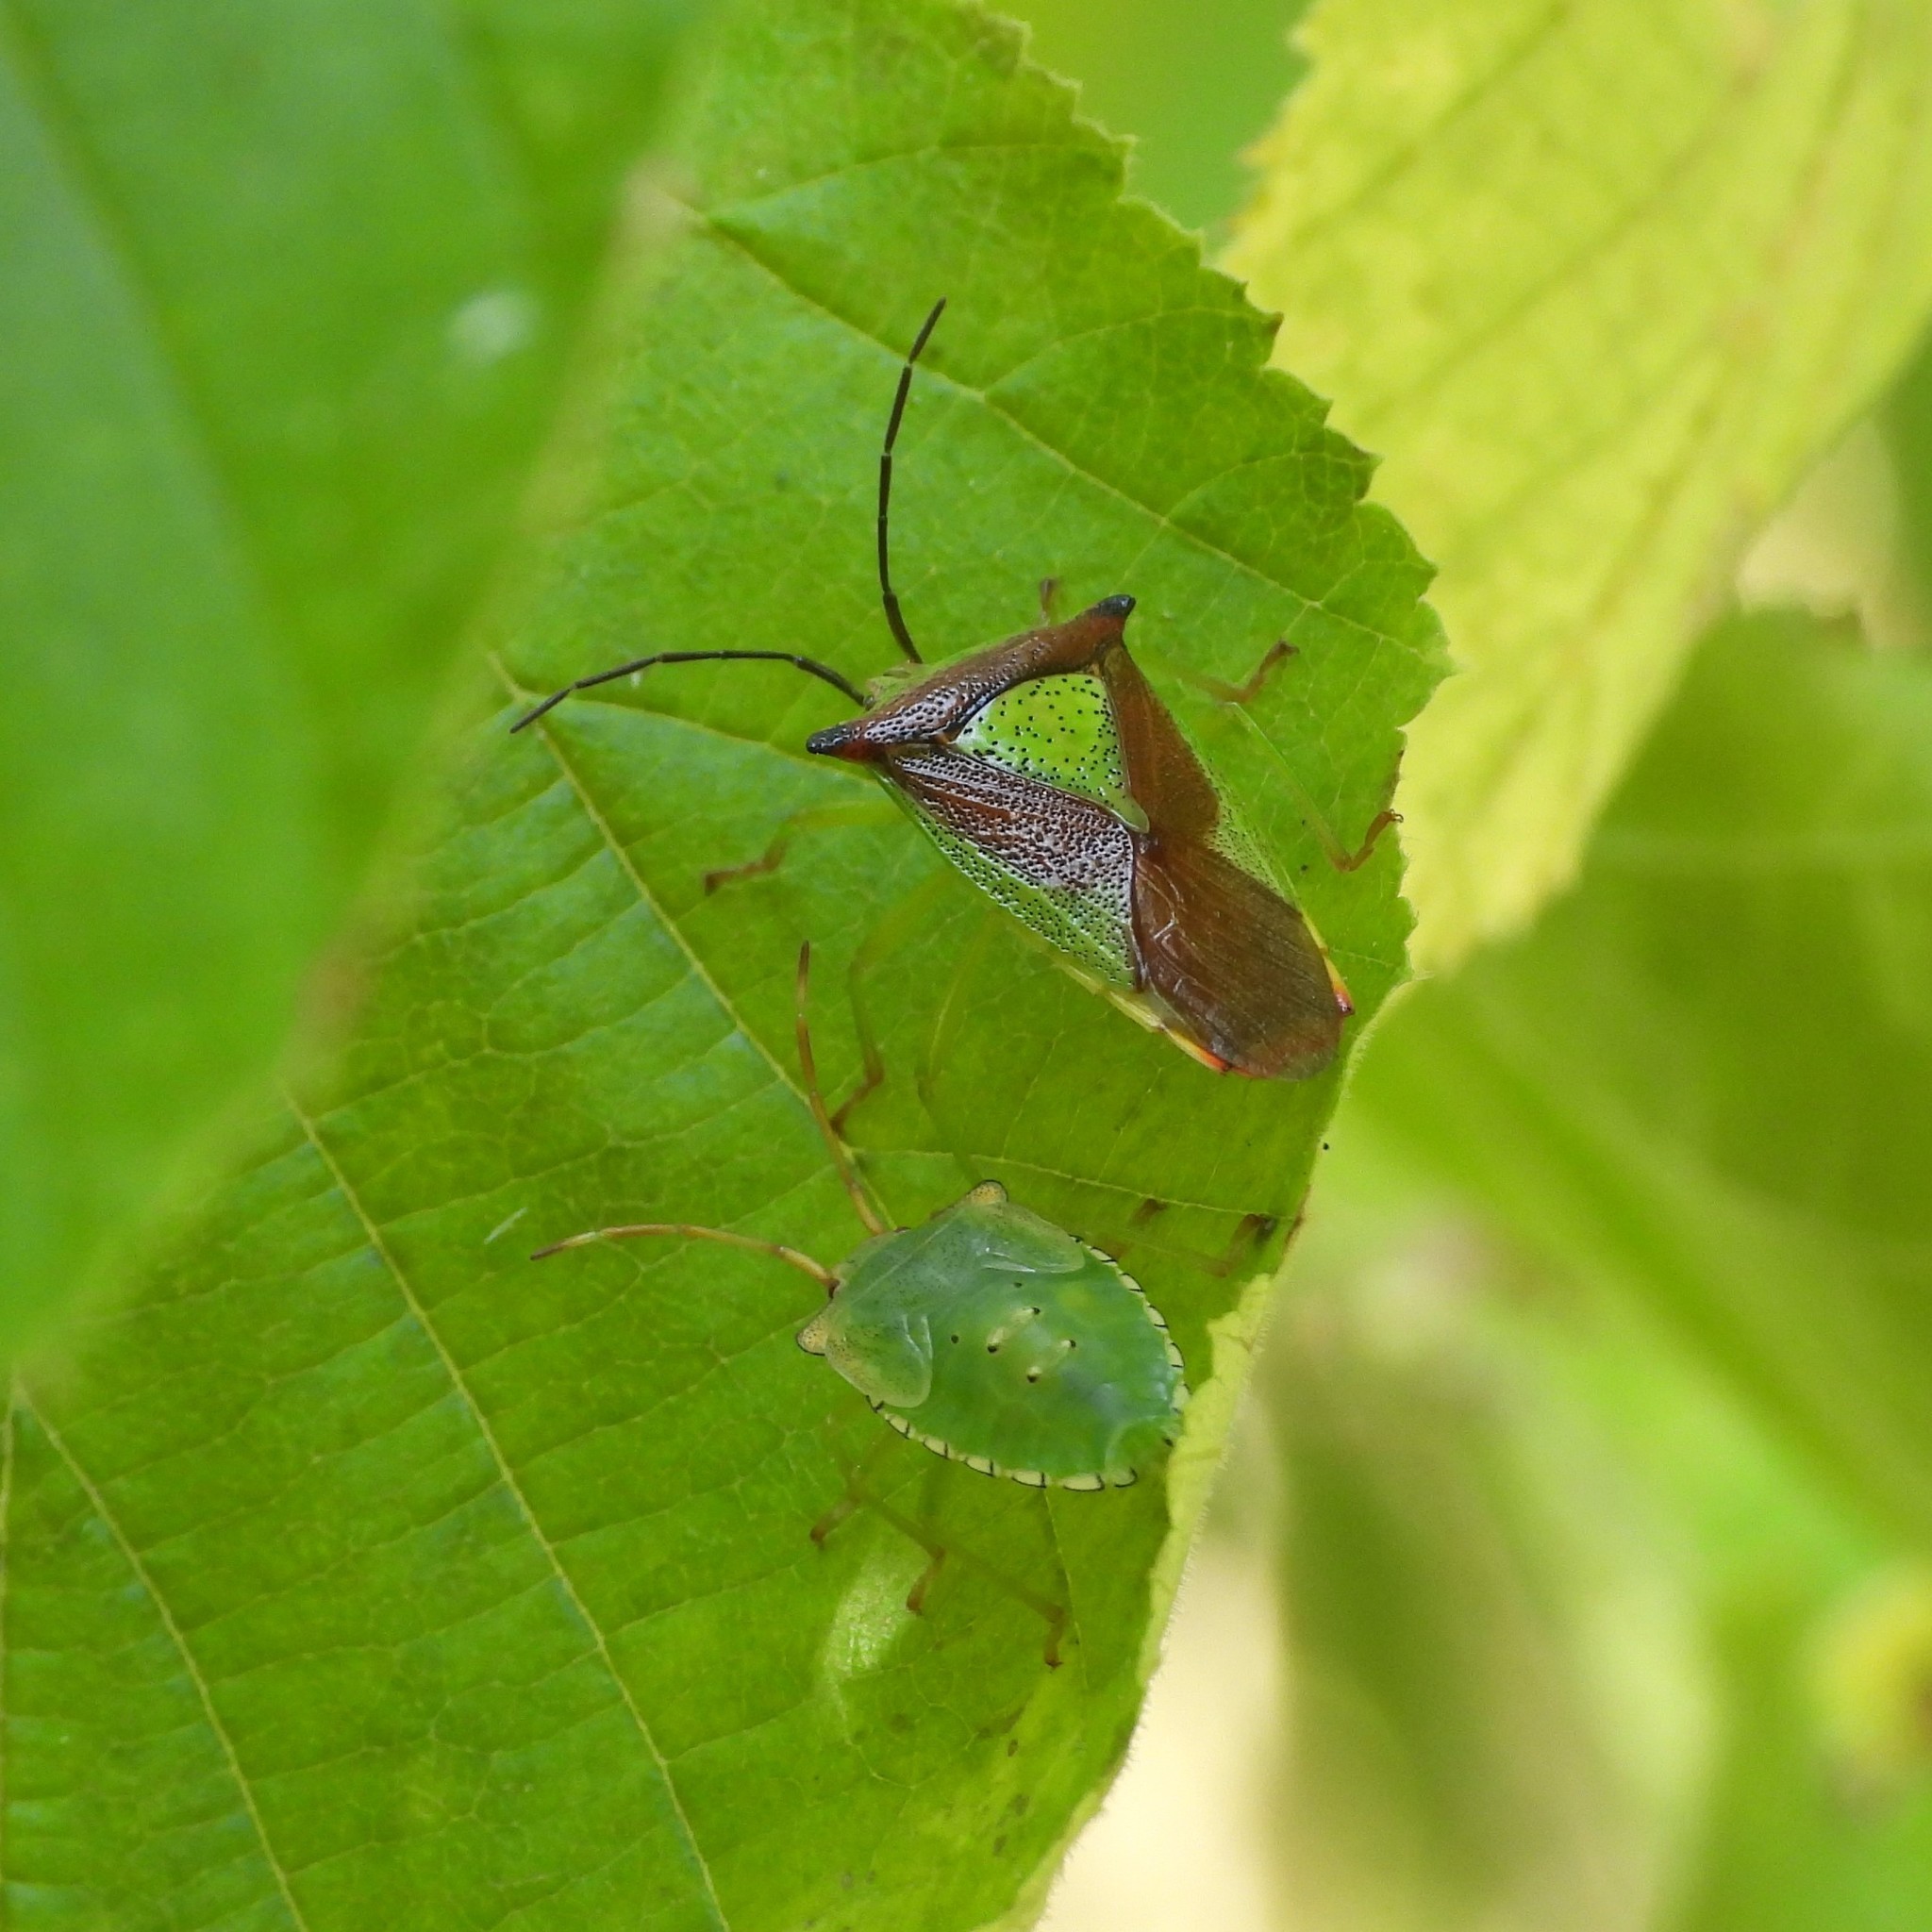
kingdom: Animalia
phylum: Arthropoda
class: Insecta
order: Hemiptera
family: Acanthosomatidae
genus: Acanthosoma
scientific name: Acanthosoma haemorrhoidale
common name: Hawthorn shieldbug
